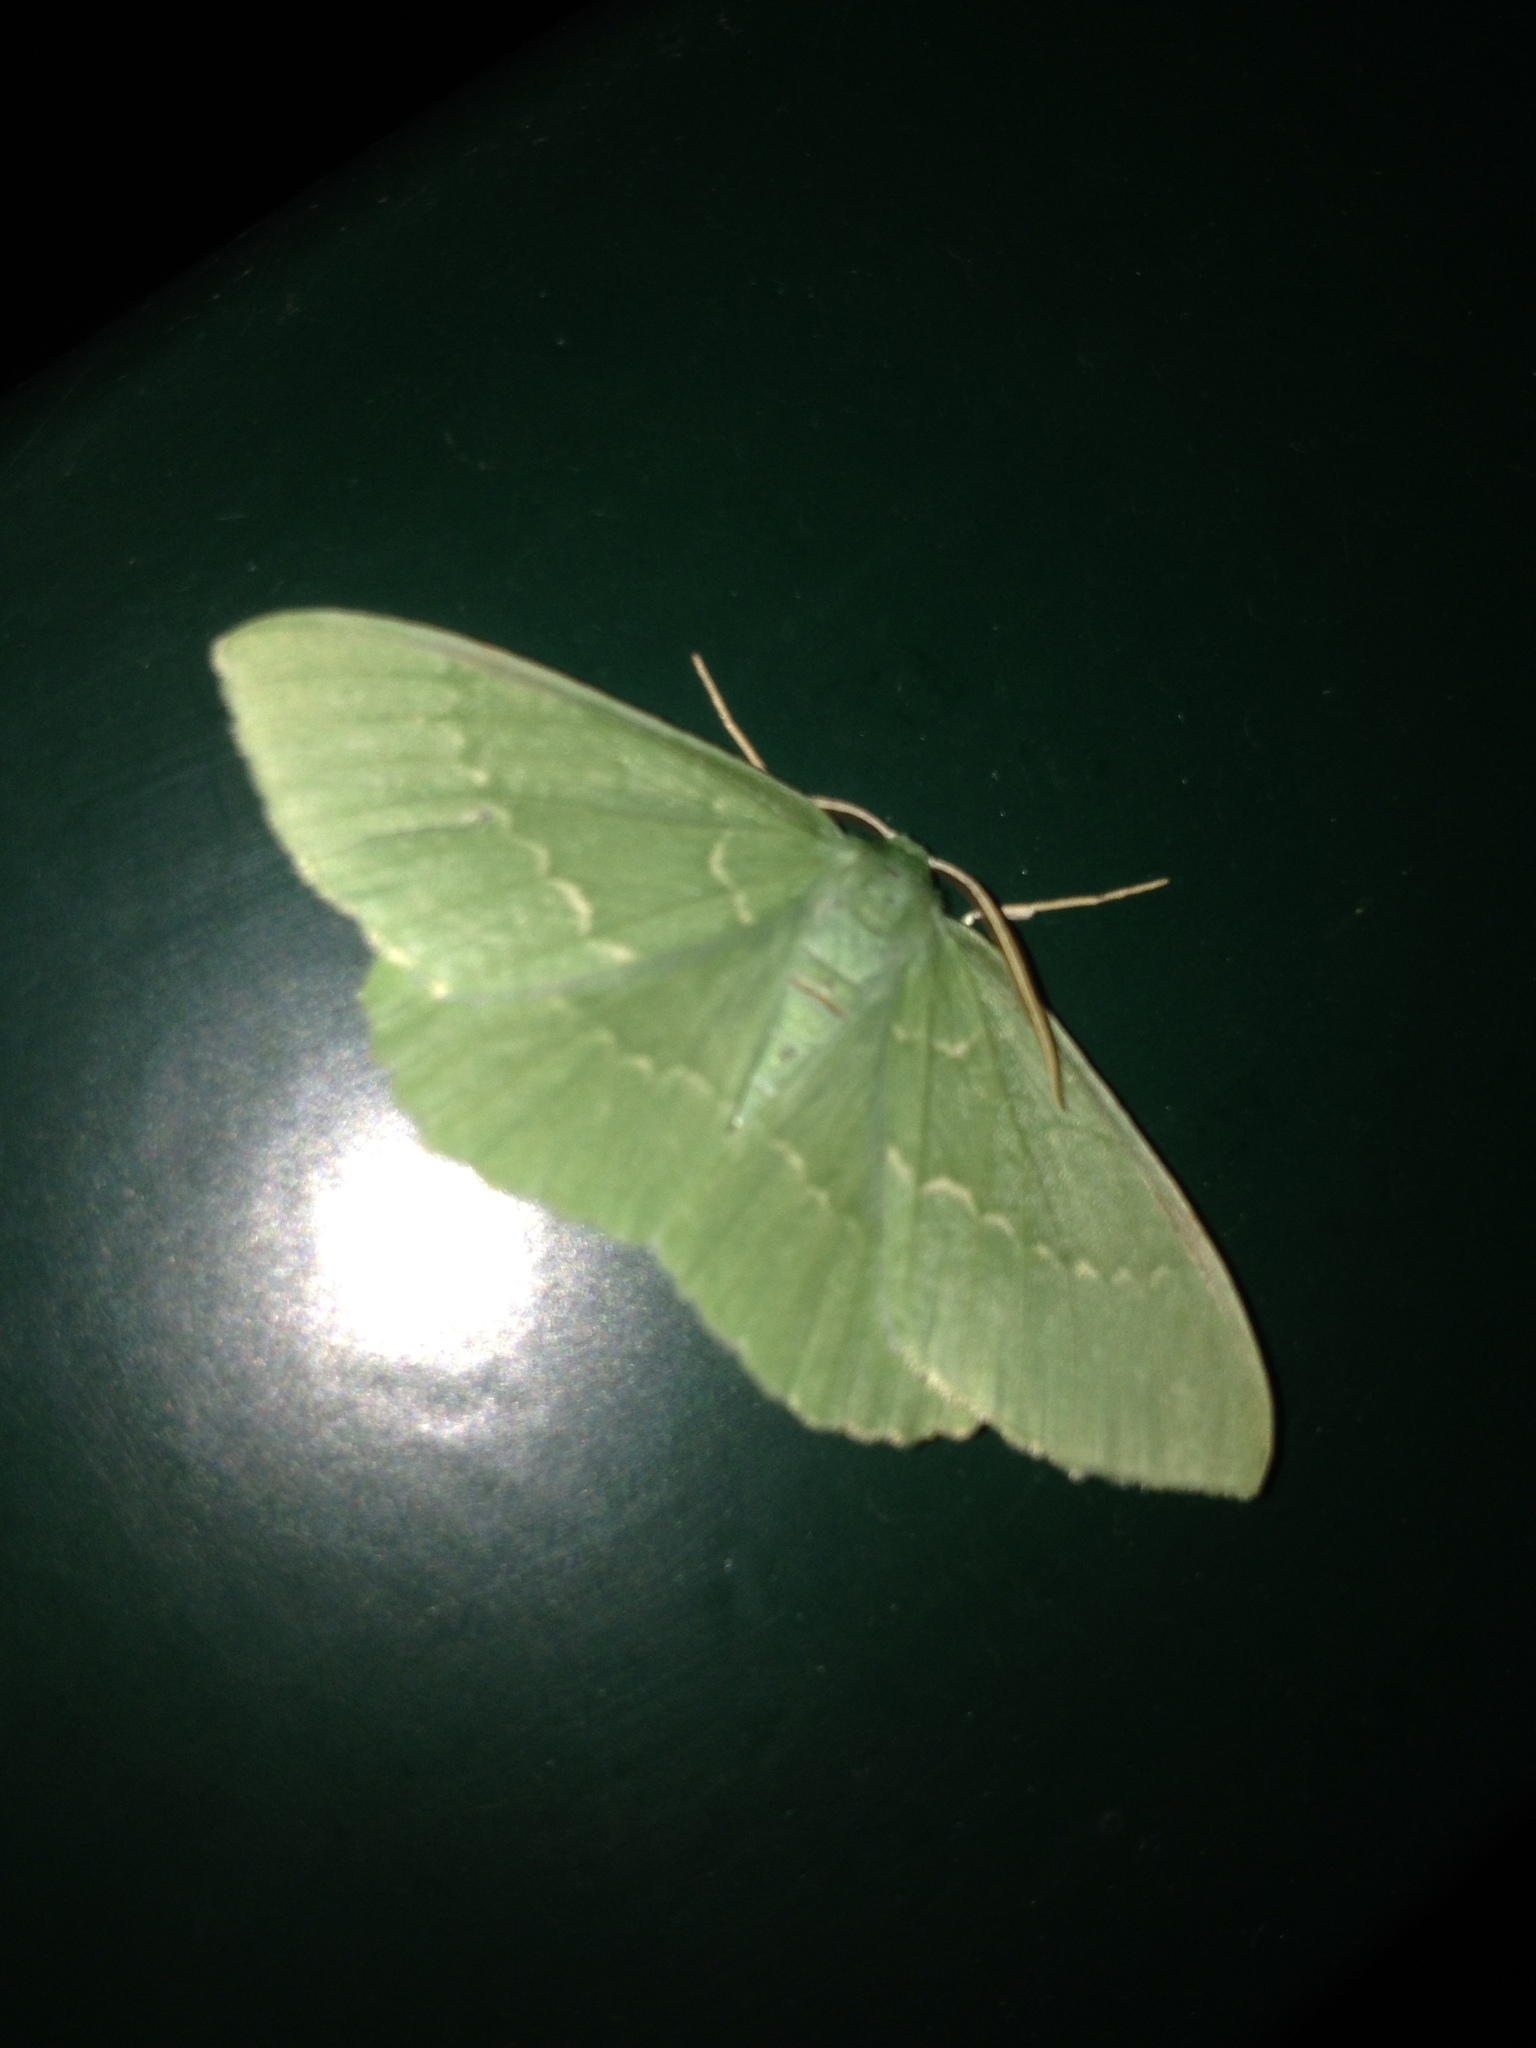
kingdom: Animalia
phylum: Arthropoda
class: Insecta
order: Lepidoptera
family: Geometridae
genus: Geometra
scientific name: Geometra papilionaria
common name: Large emerald
